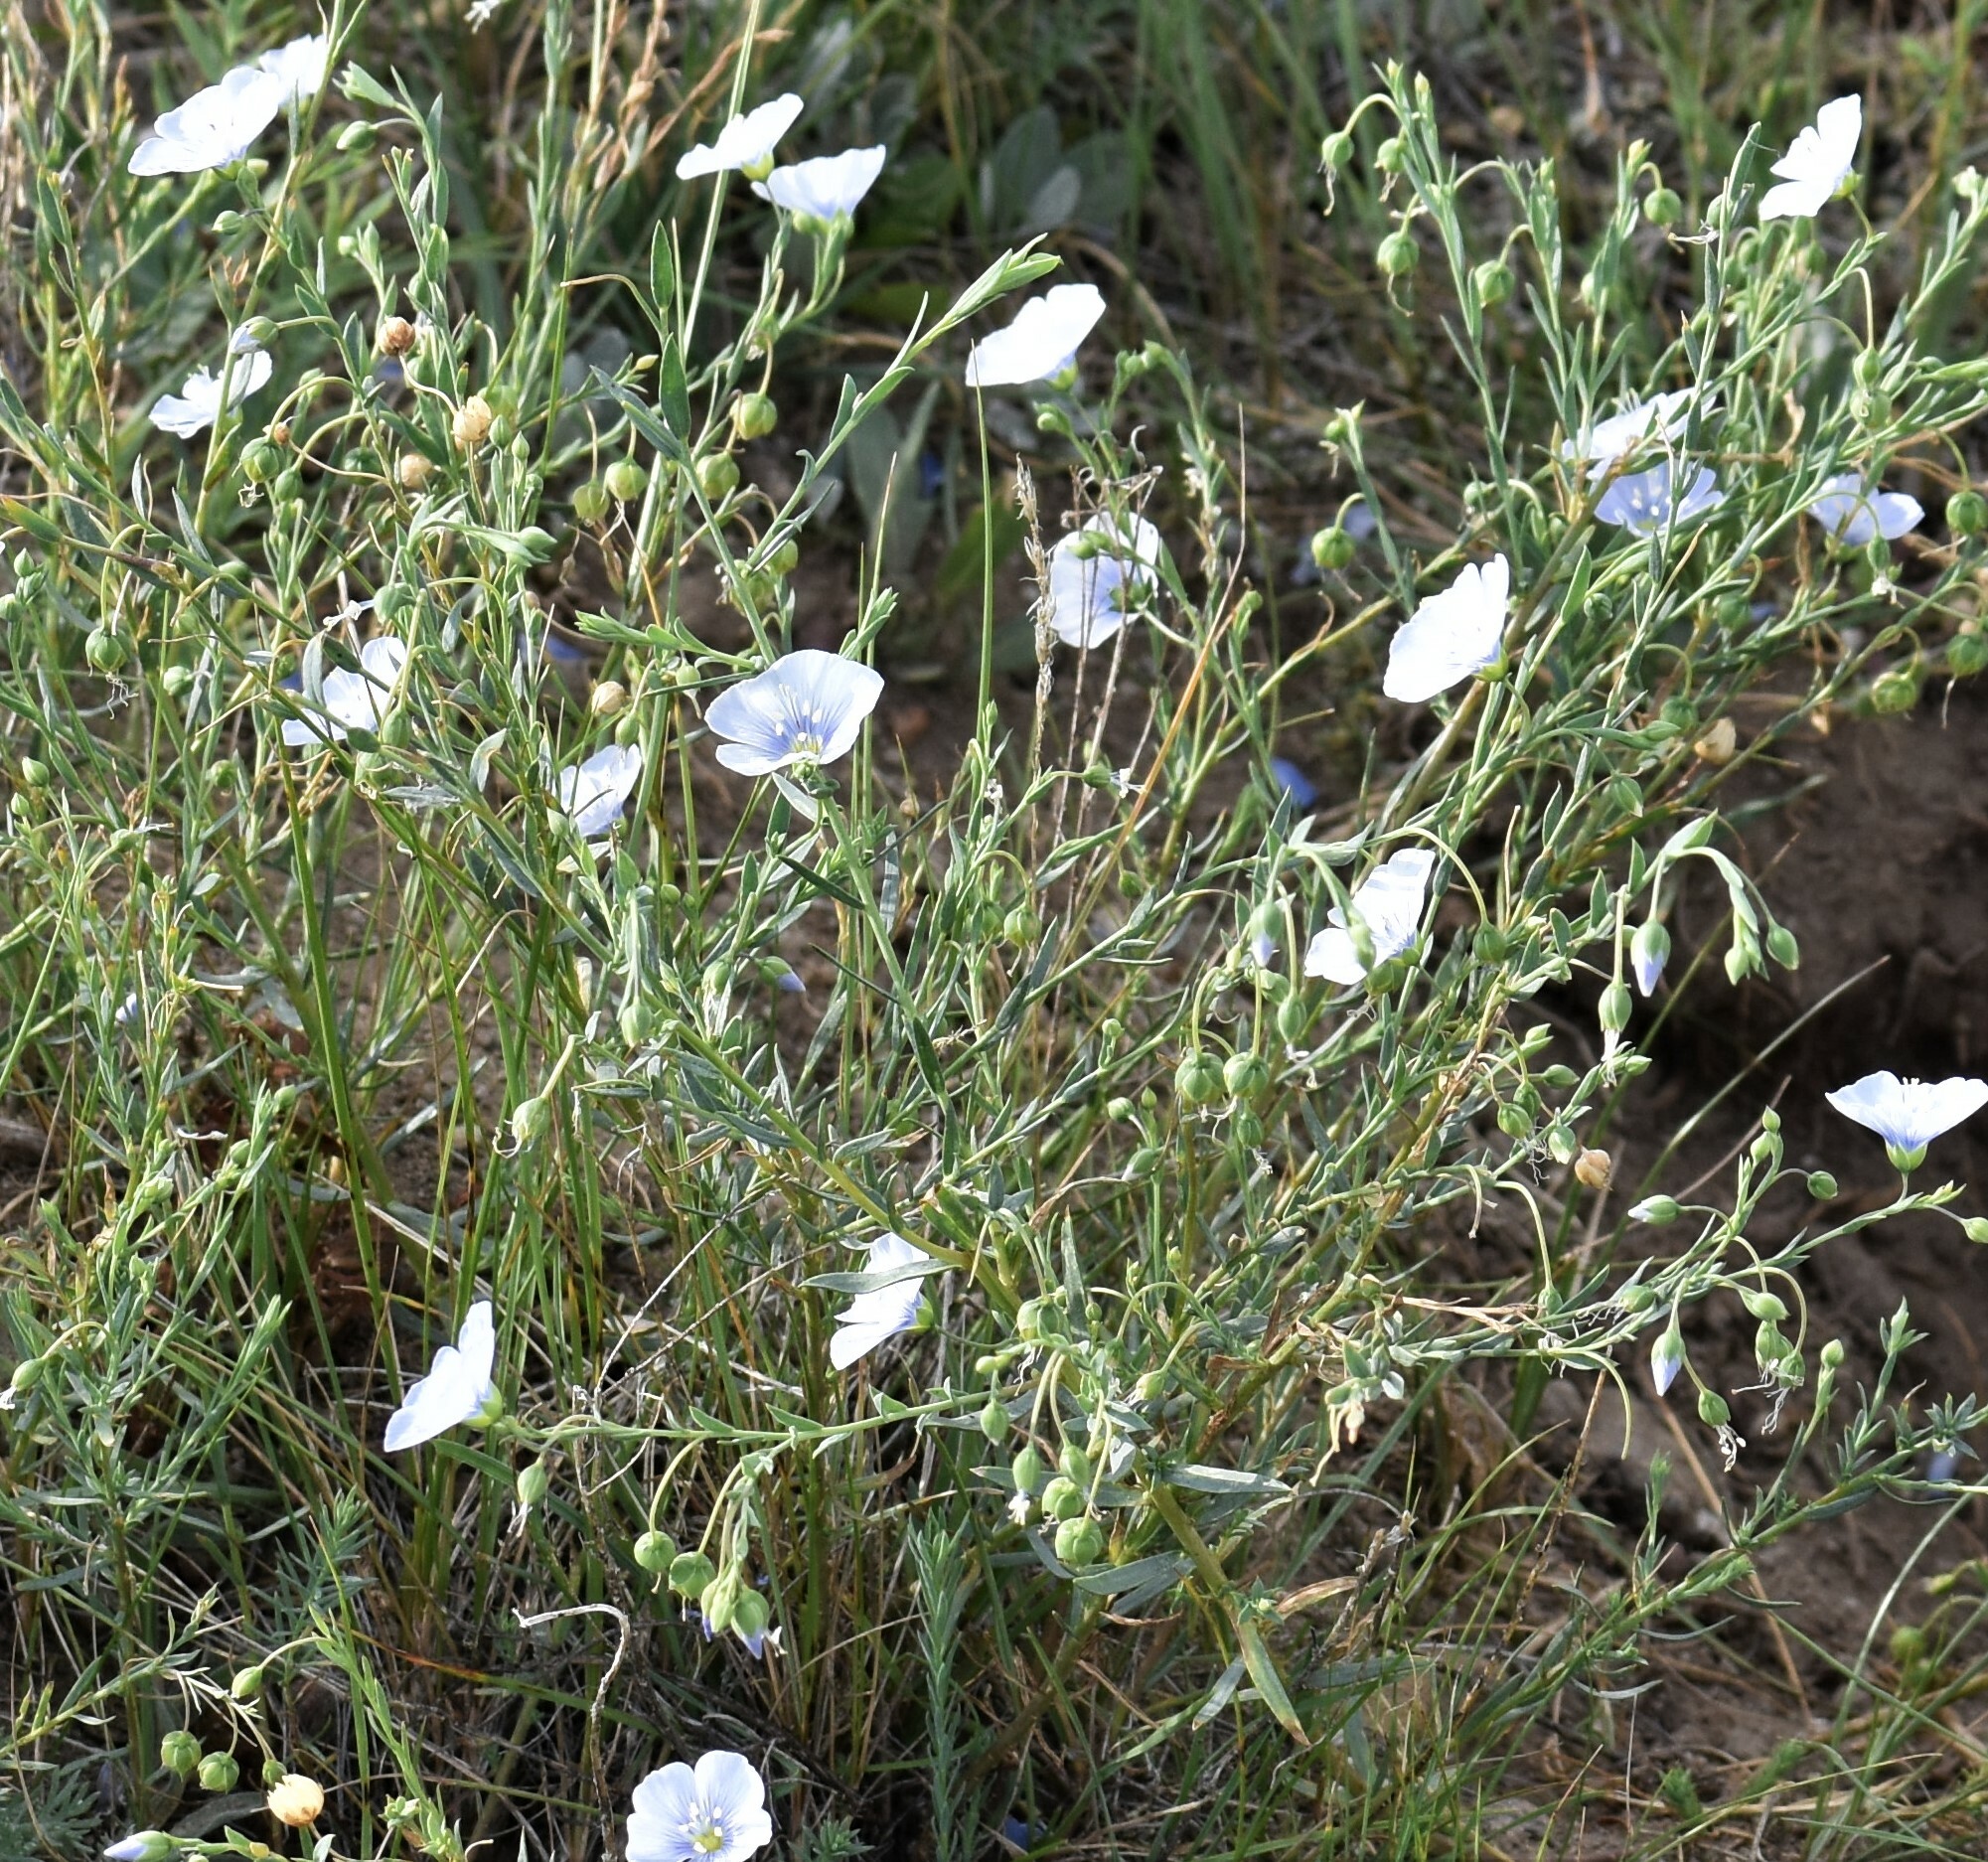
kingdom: Plantae
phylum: Tracheophyta
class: Magnoliopsida
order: Malpighiales
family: Linaceae
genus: Linum
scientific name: Linum lewisii
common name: Prairie flax
